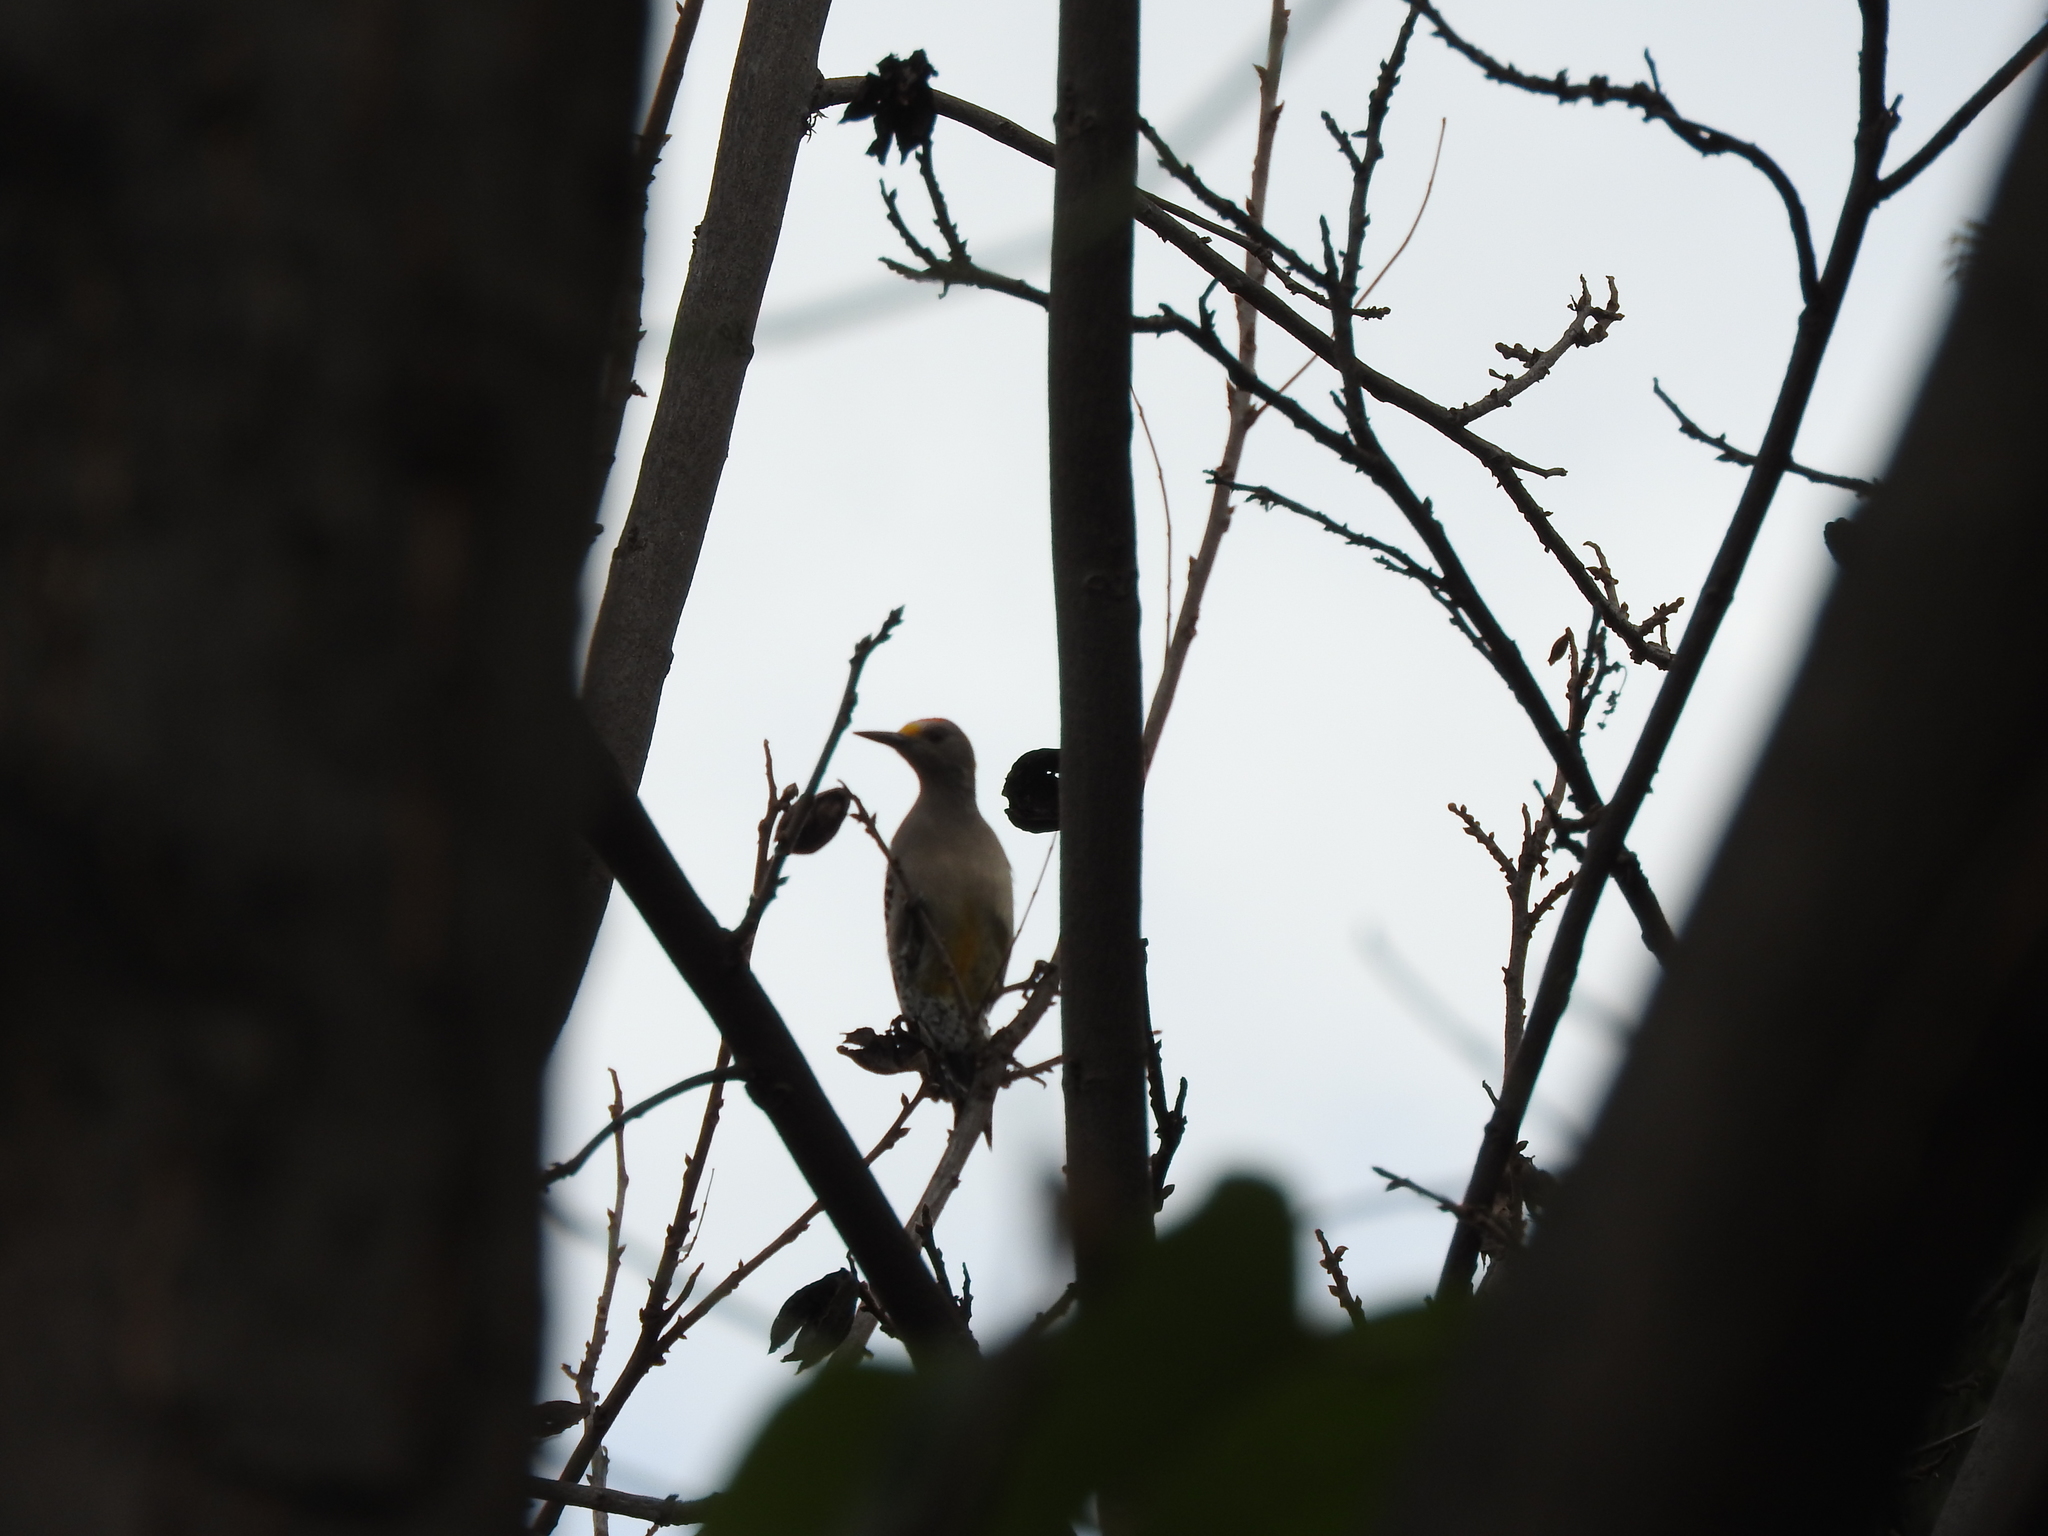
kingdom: Animalia
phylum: Chordata
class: Aves
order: Piciformes
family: Picidae
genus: Melanerpes
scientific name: Melanerpes aurifrons
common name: Golden-fronted woodpecker
